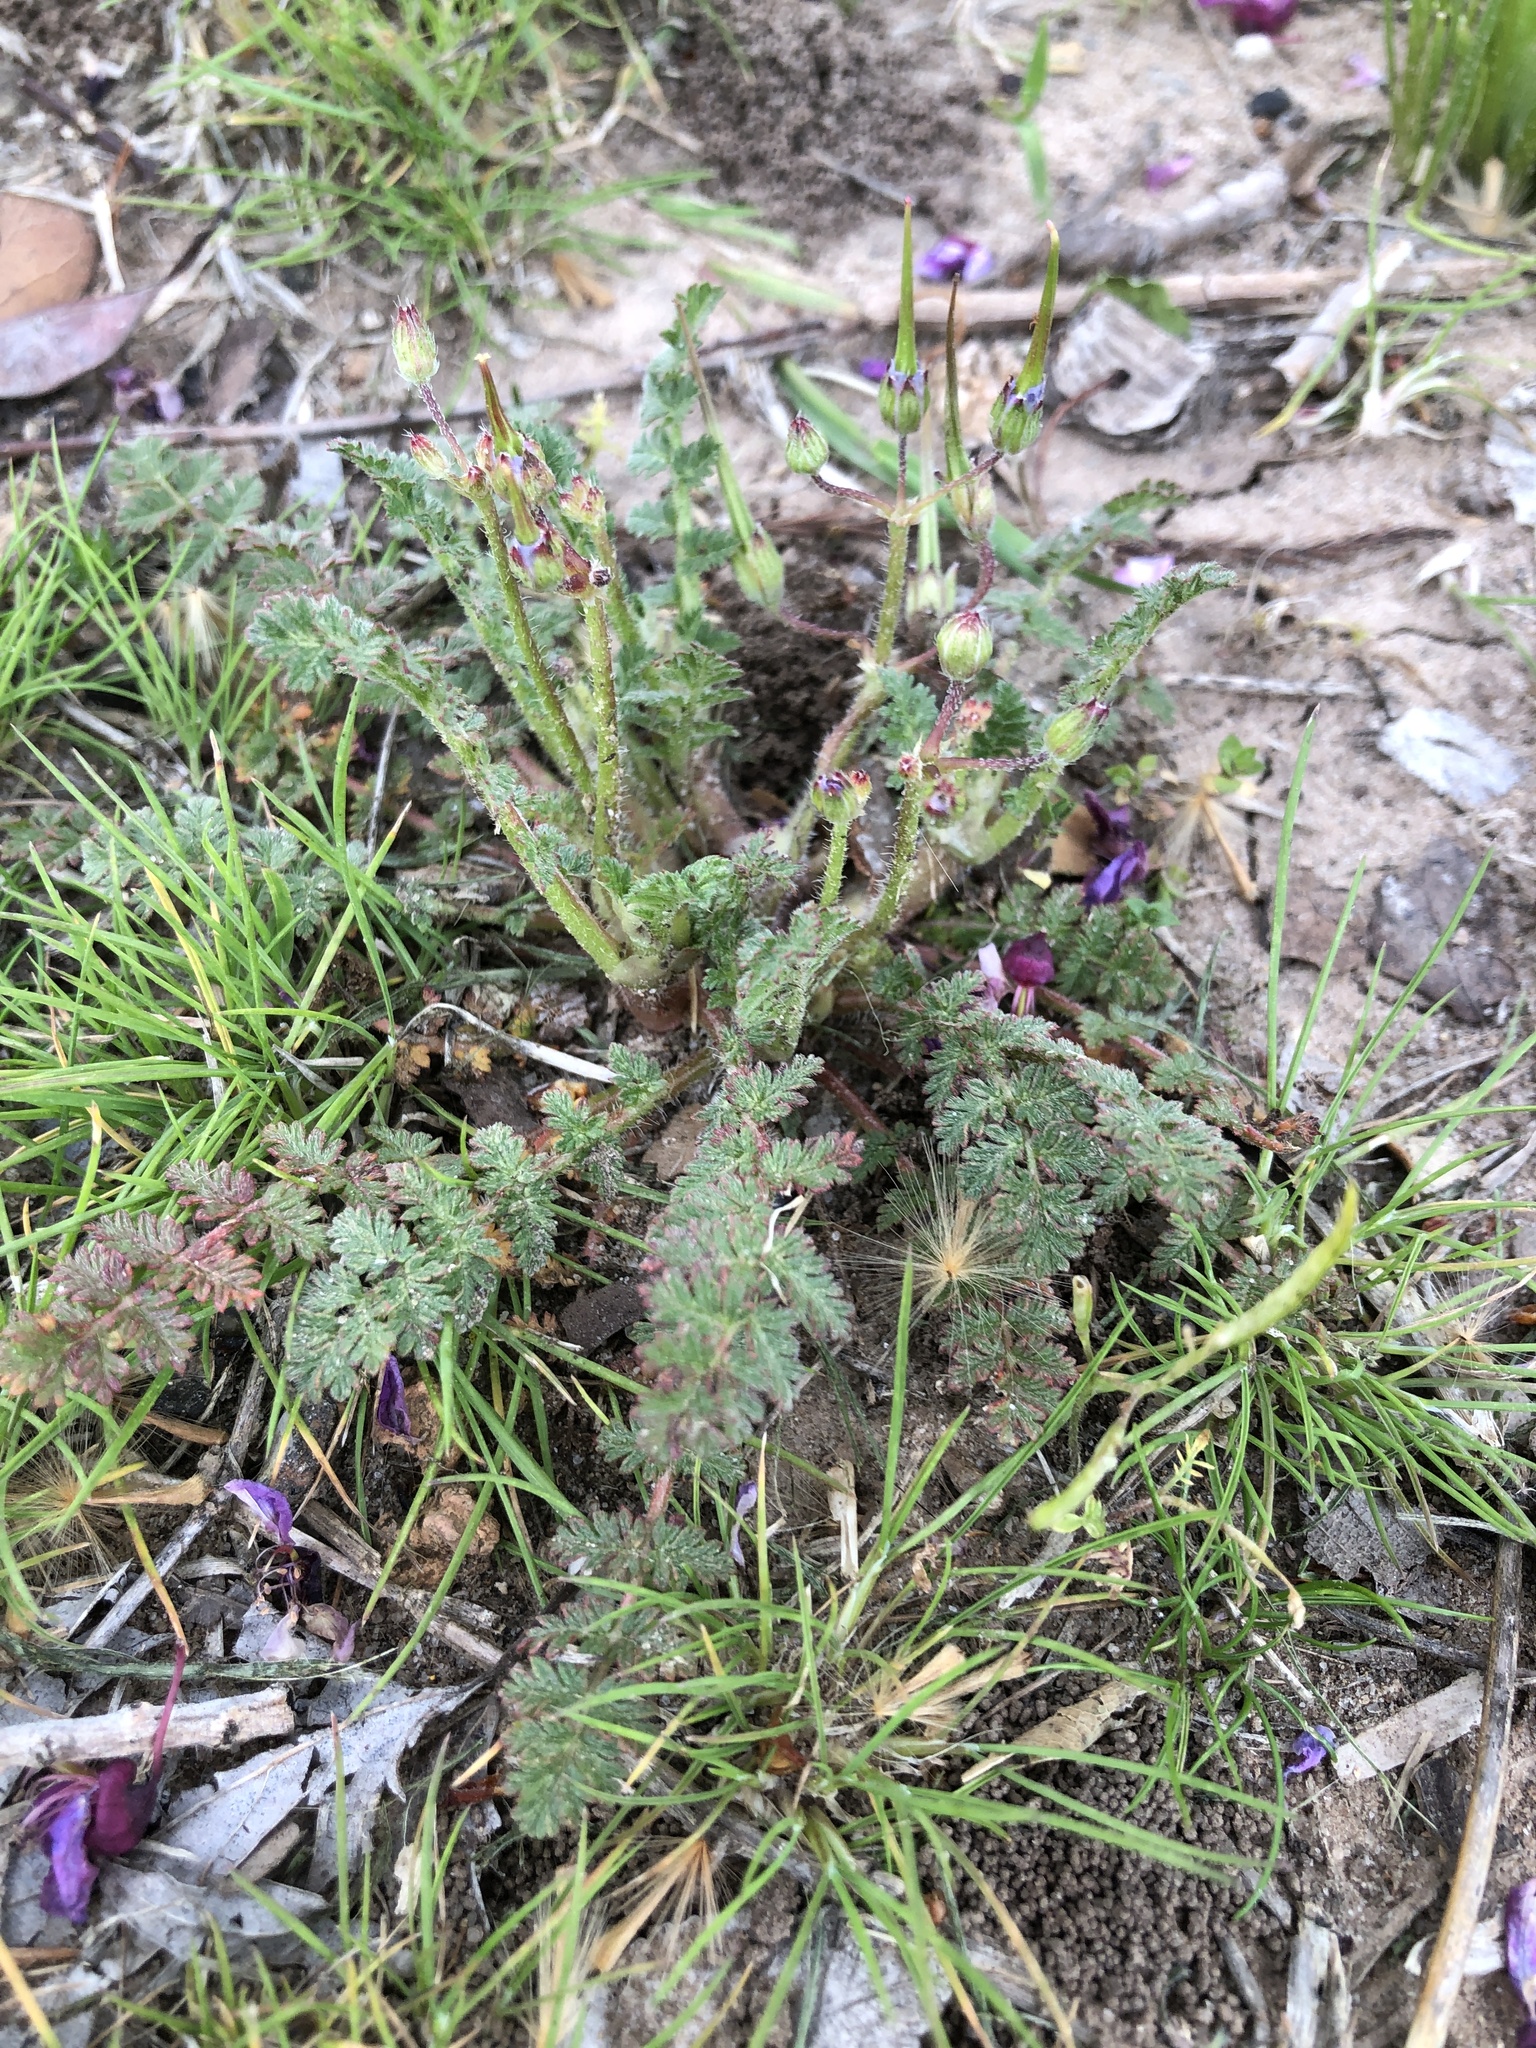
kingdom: Plantae
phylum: Tracheophyta
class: Magnoliopsida
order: Geraniales
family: Geraniaceae
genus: Erodium
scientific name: Erodium cicutarium
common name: Common stork's-bill
